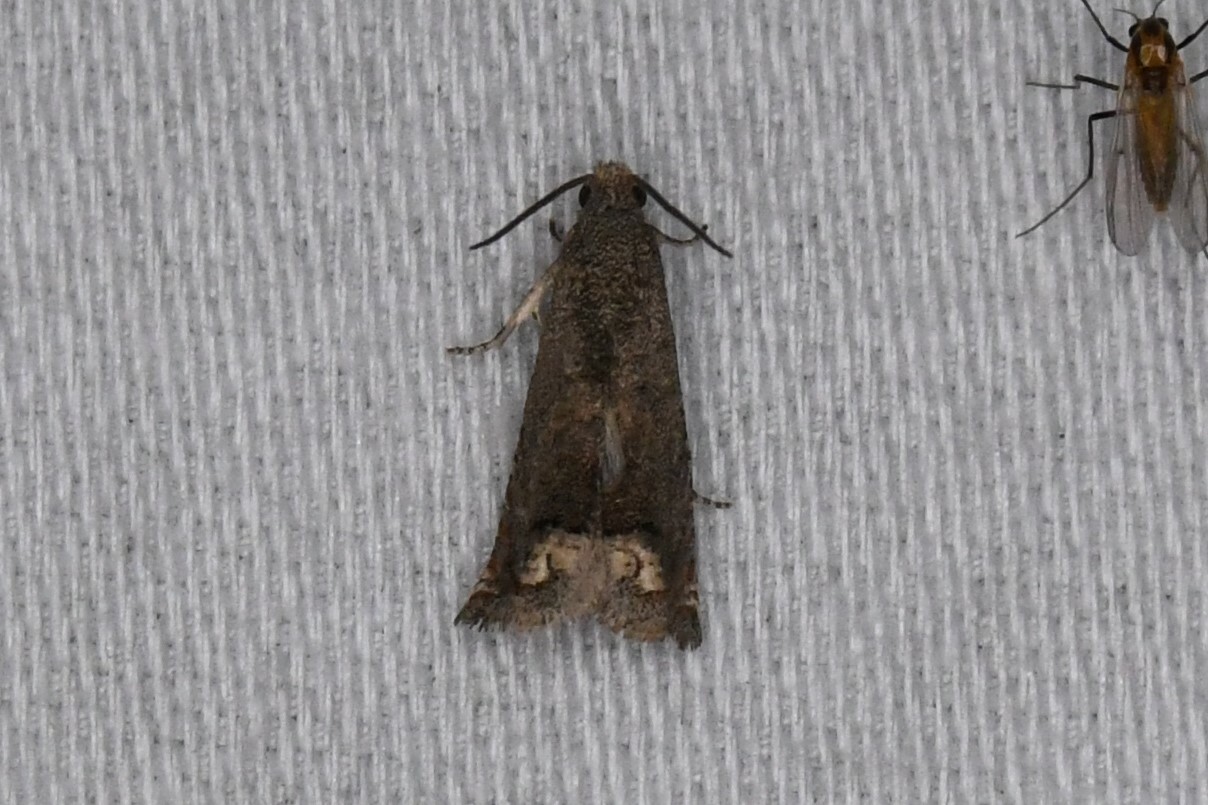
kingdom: Animalia
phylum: Arthropoda
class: Insecta
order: Lepidoptera
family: Tortricidae
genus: Epiblema
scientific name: Epiblema strenuana
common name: Ragweed borer moth
